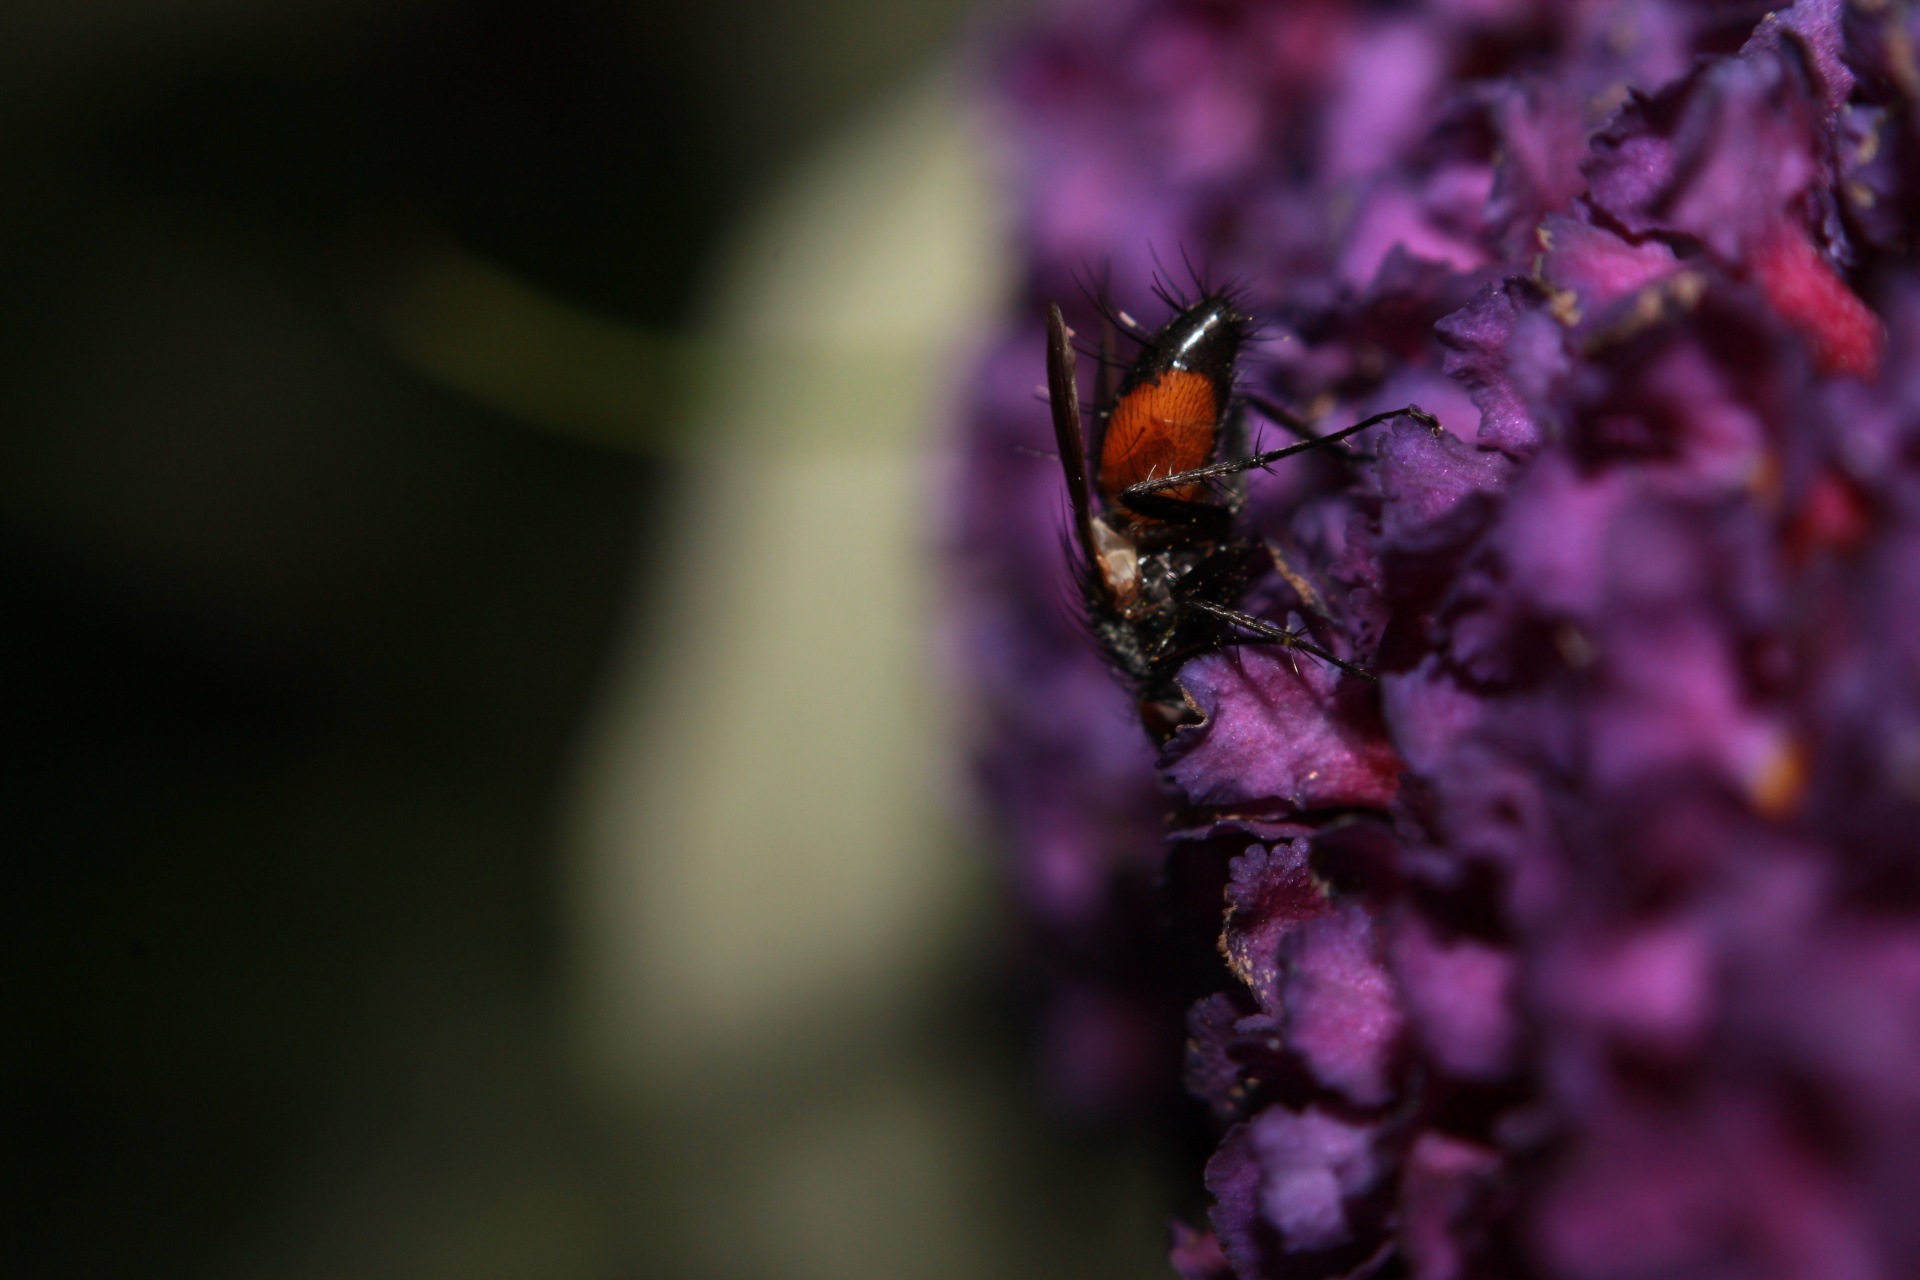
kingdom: Animalia
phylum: Arthropoda
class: Insecta
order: Diptera
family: Tachinidae
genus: Eriothrix
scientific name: Eriothrix rufomaculatus
